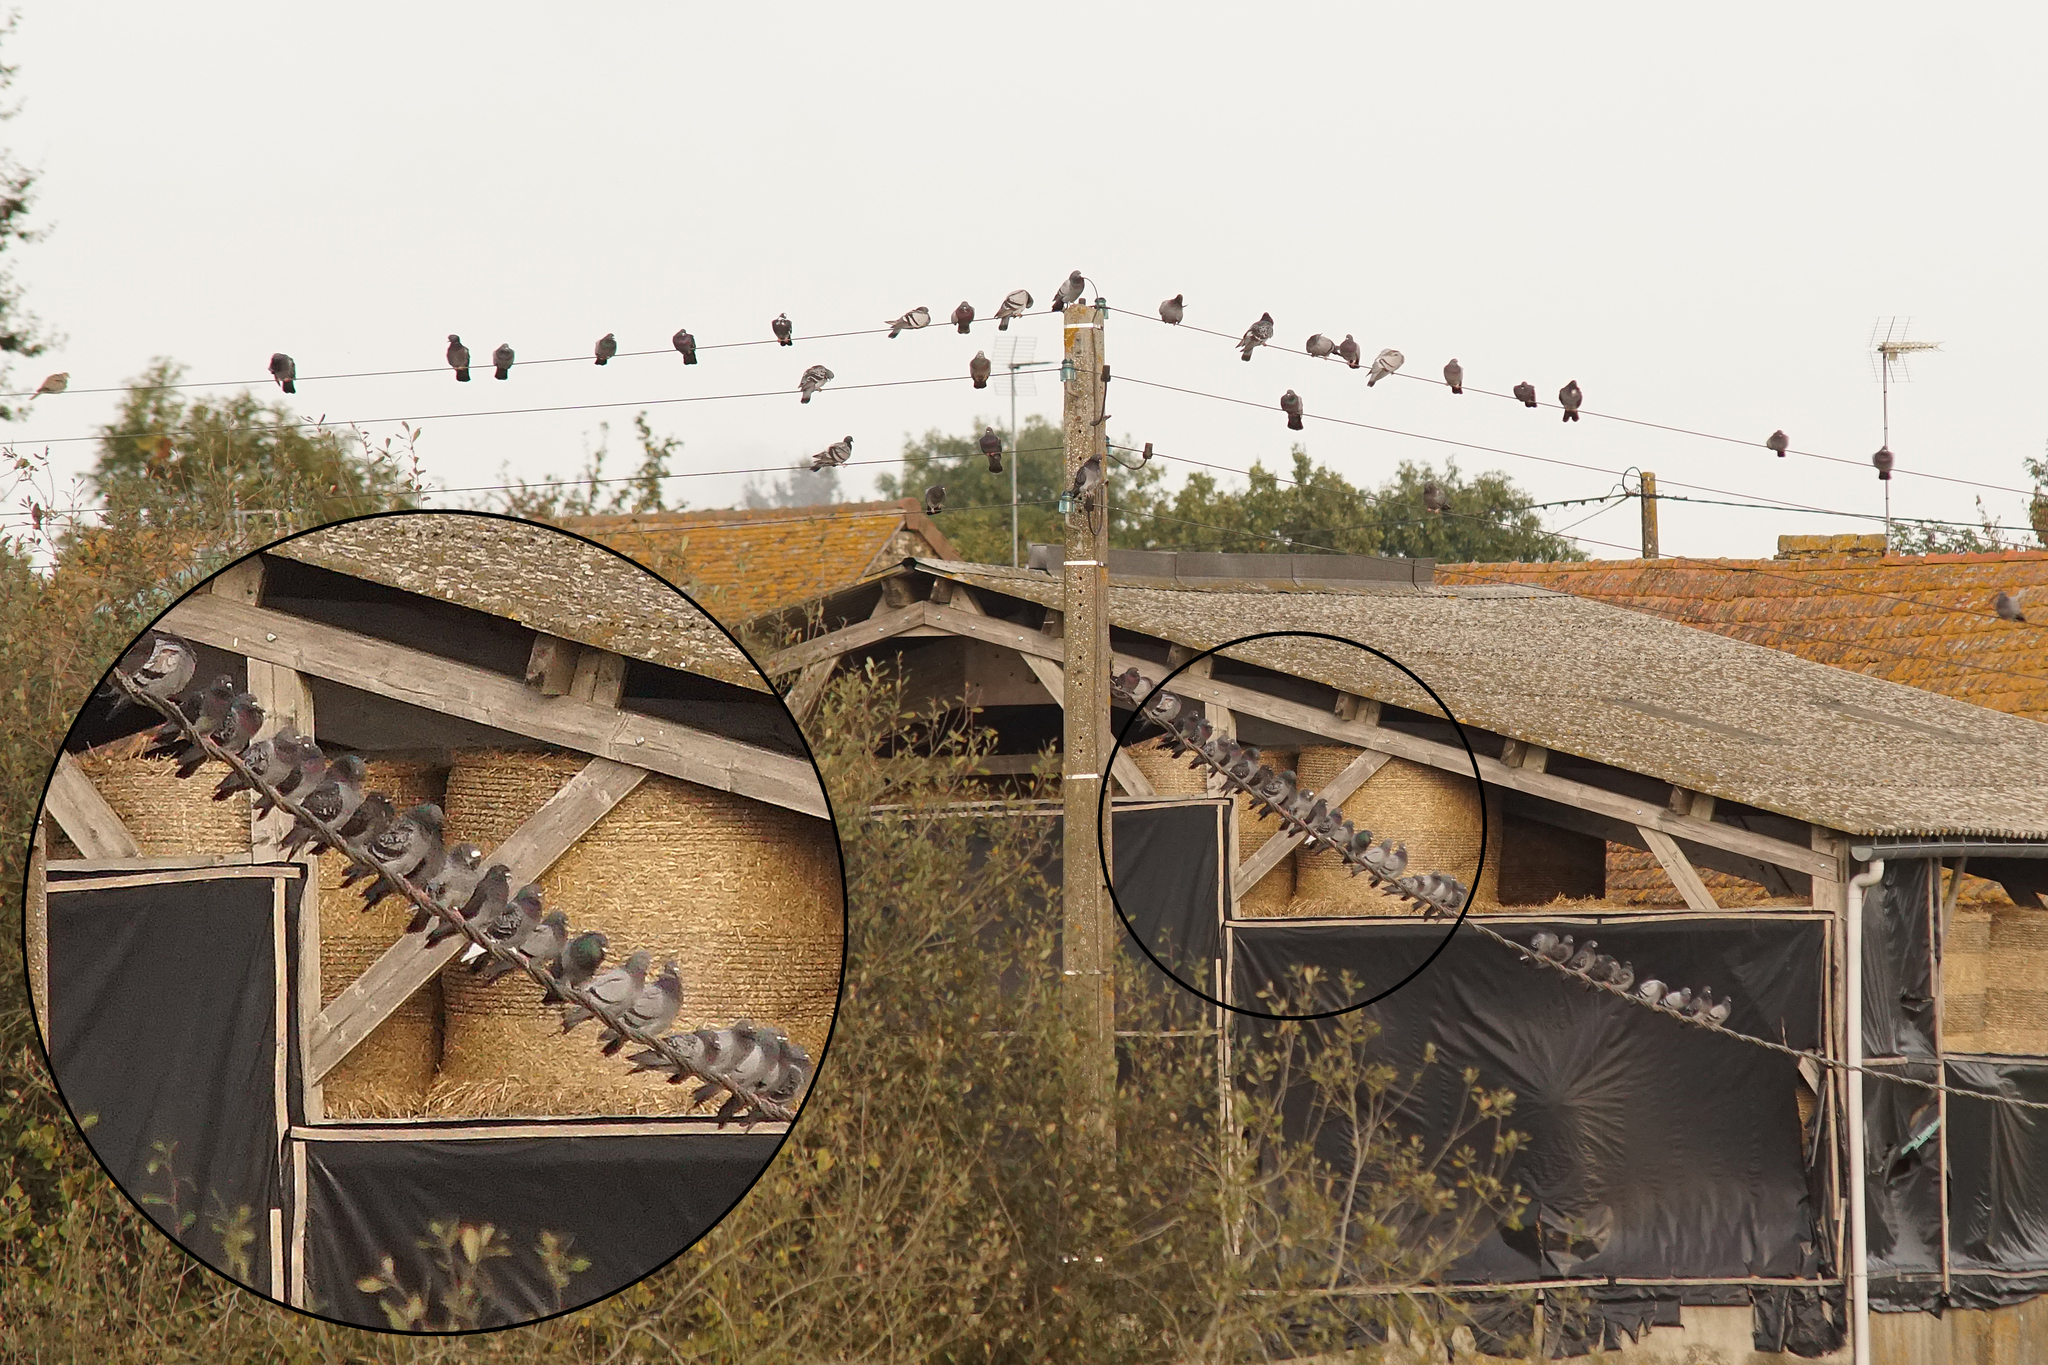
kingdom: Animalia
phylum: Chordata
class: Aves
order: Columbiformes
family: Columbidae
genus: Columba
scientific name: Columba livia
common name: Rock pigeon
